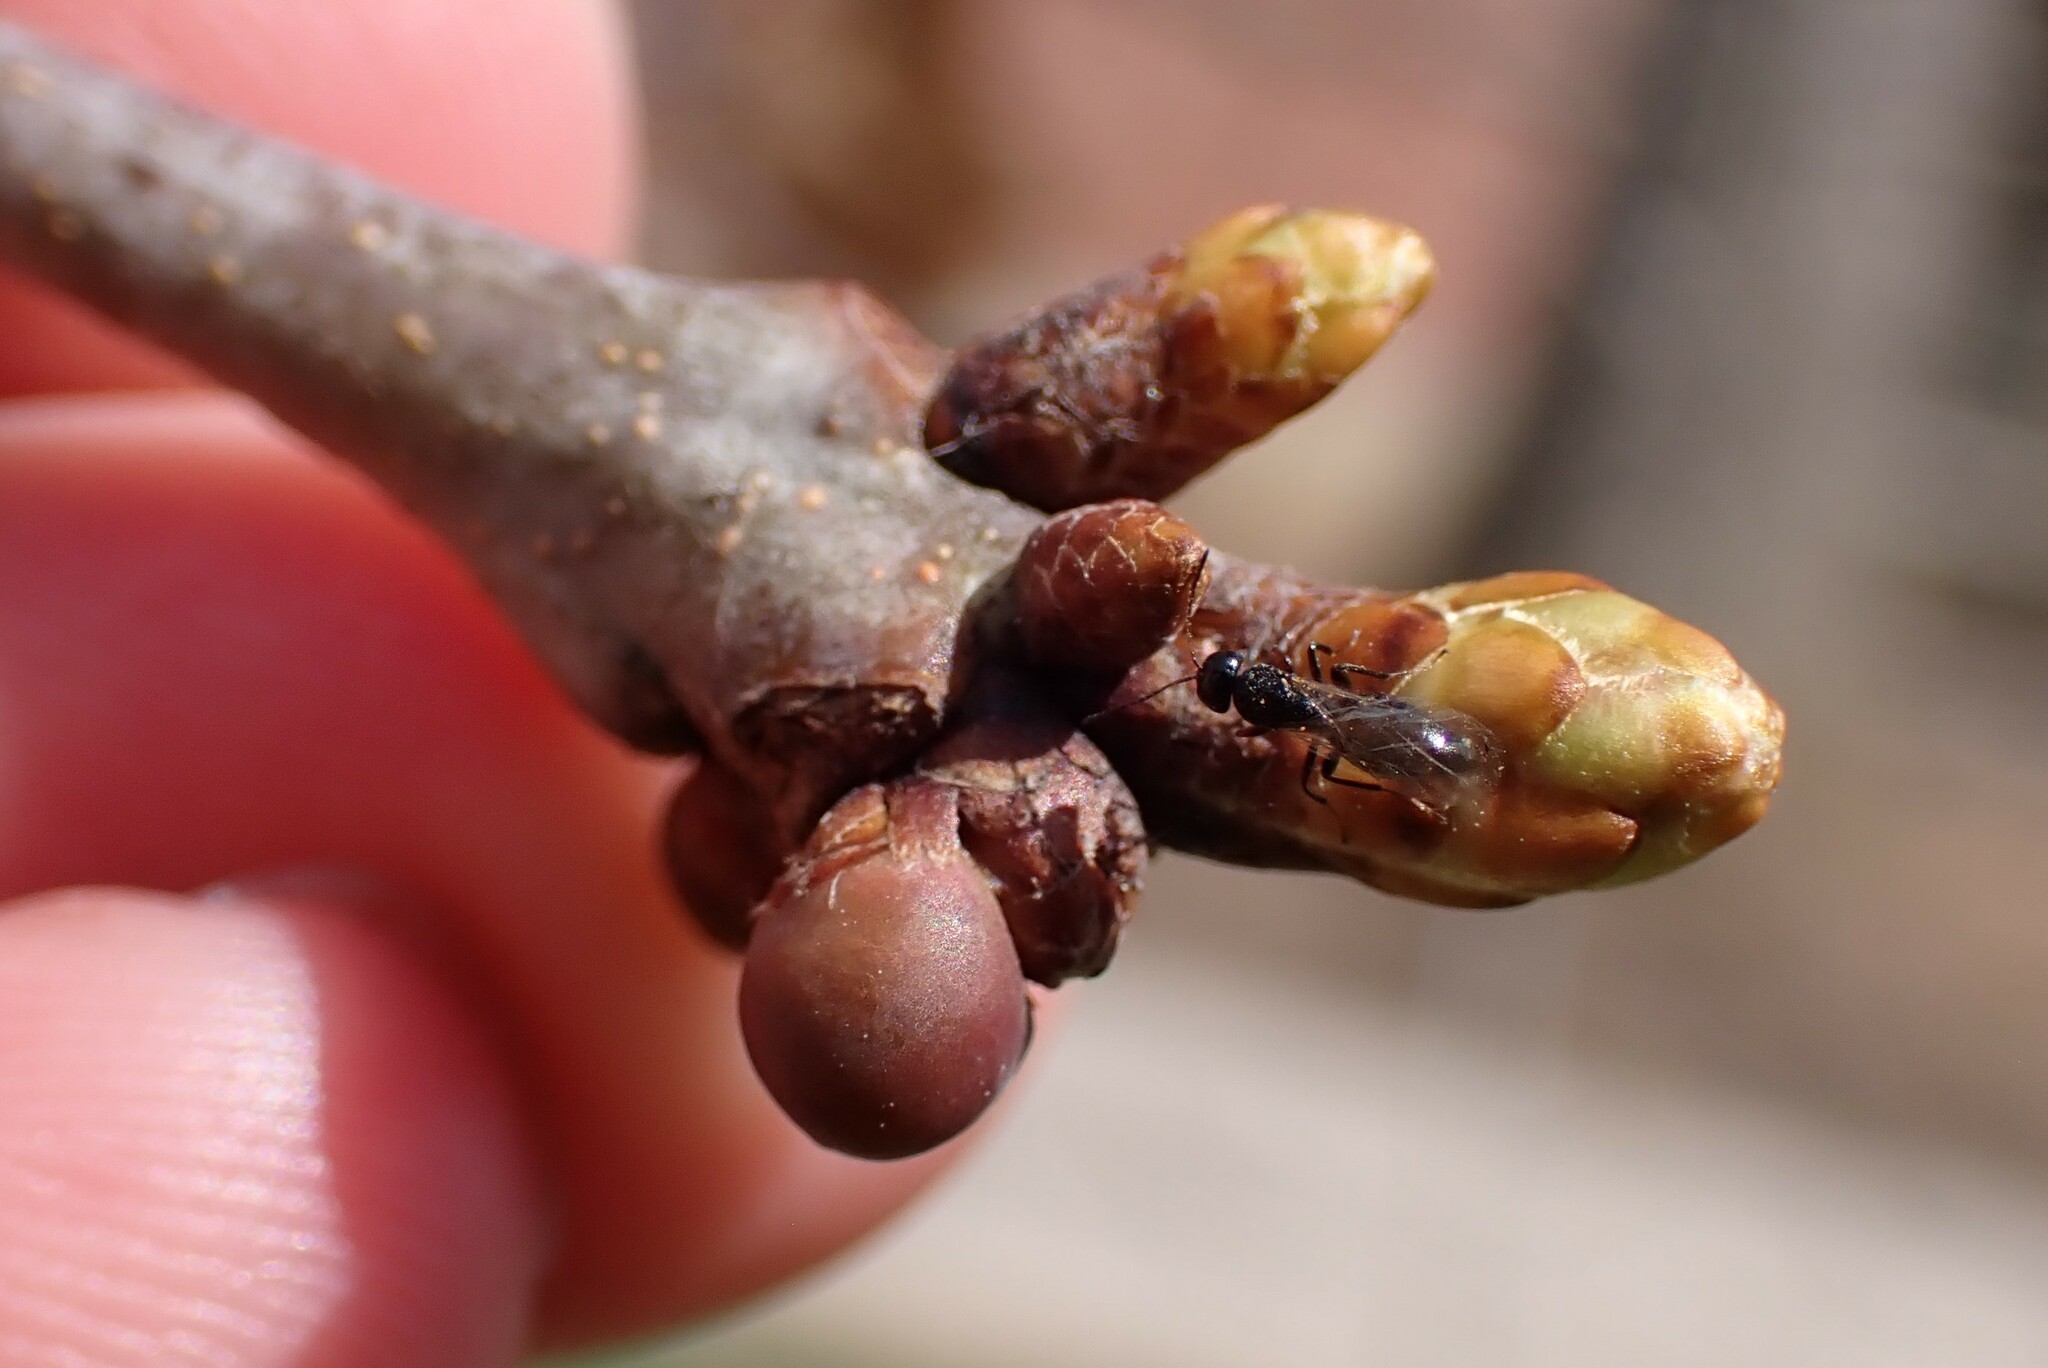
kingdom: Animalia
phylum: Arthropoda
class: Insecta
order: Hymenoptera
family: Cynipidae
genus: Neuroterus
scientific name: Neuroterus
